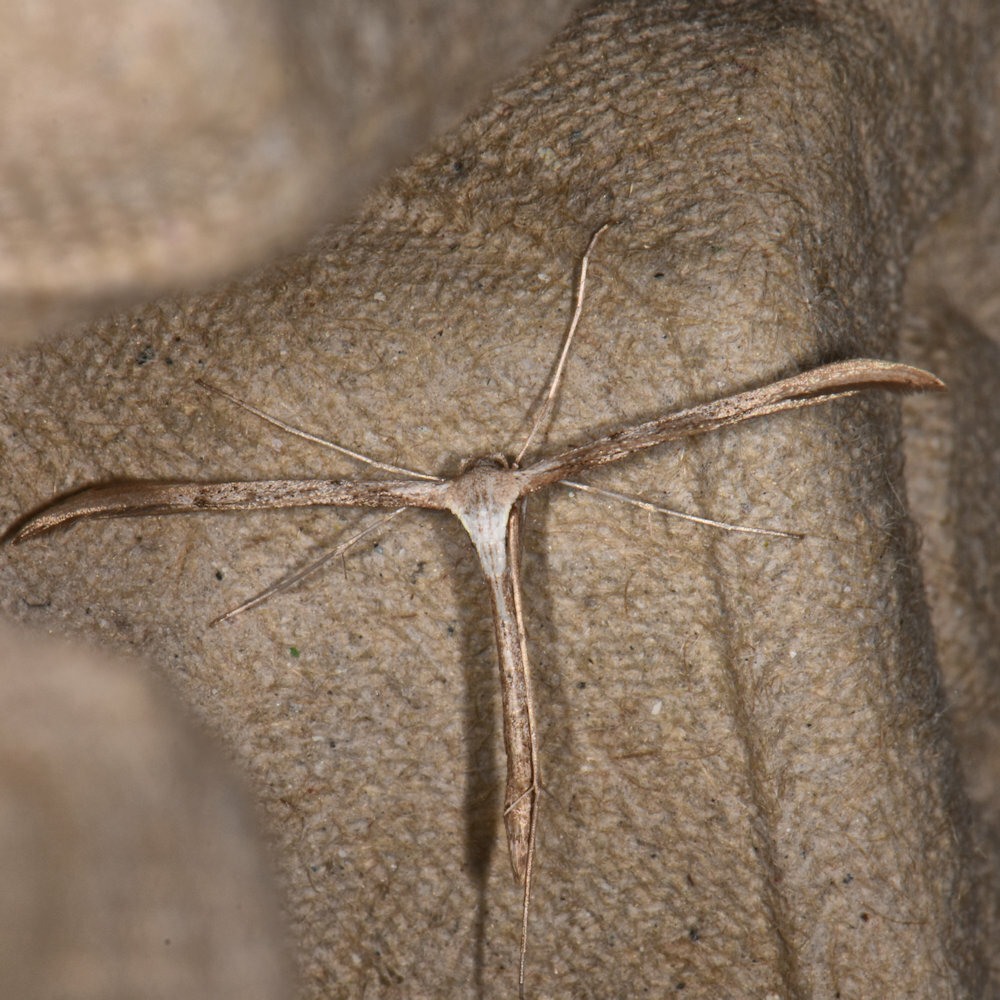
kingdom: Animalia
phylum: Arthropoda
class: Insecta
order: Lepidoptera
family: Pterophoridae
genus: Emmelina
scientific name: Emmelina monodactyla
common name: Common plume
